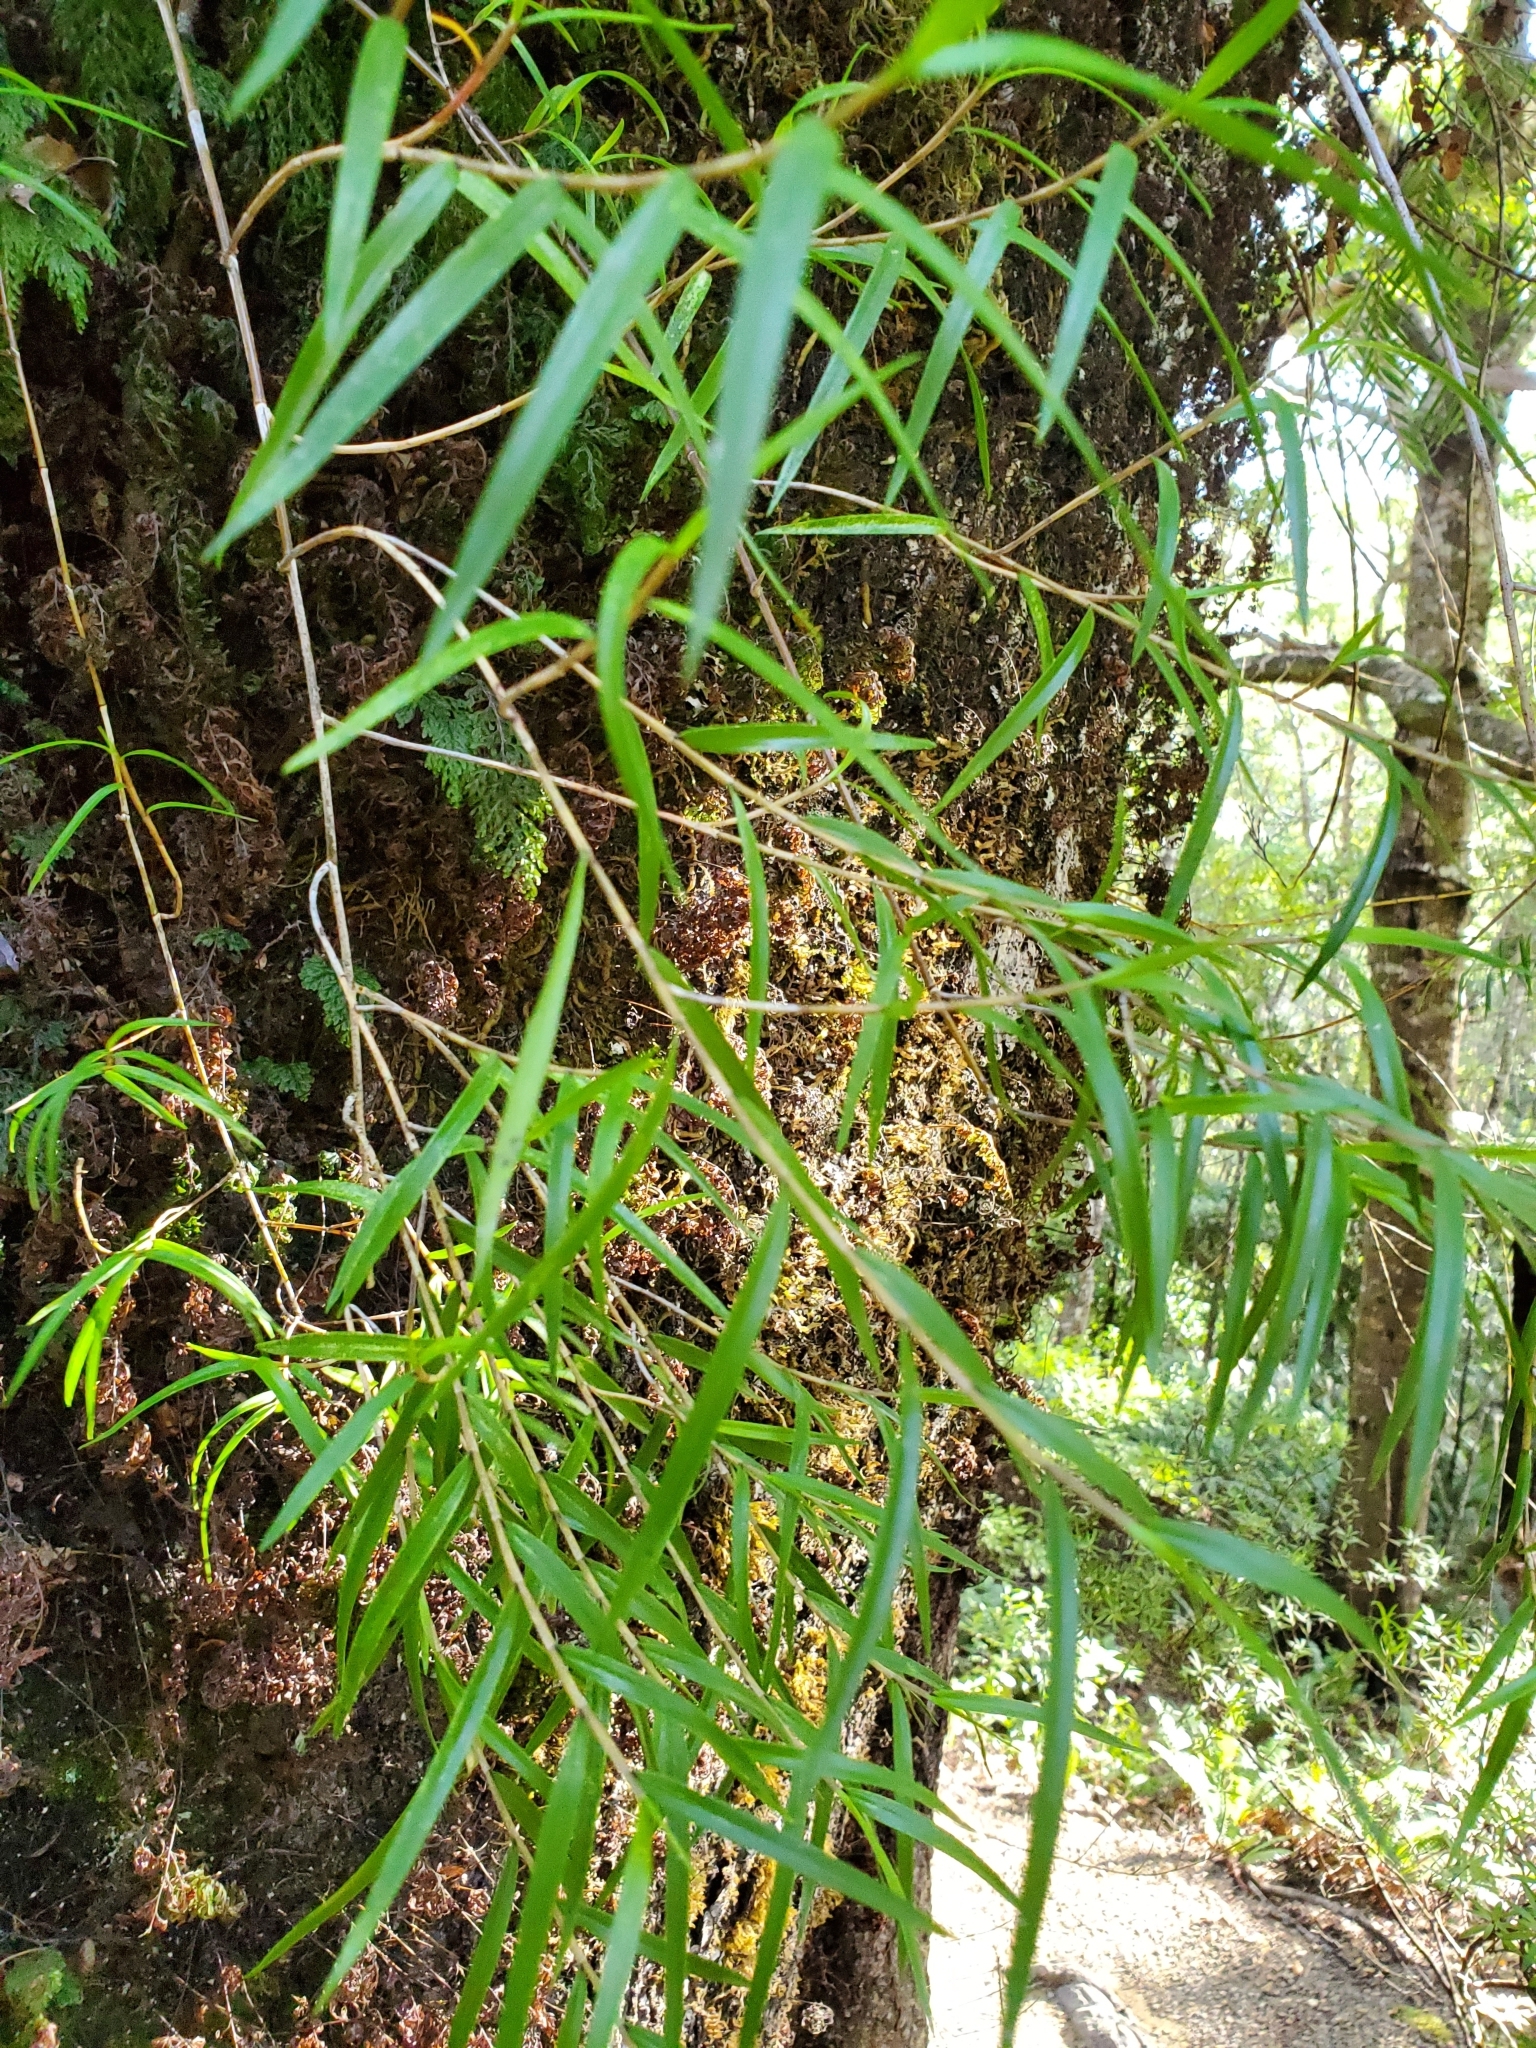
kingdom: Plantae
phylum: Tracheophyta
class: Liliopsida
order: Asparagales
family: Orchidaceae
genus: Dendrobium
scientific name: Dendrobium cunninghamii
